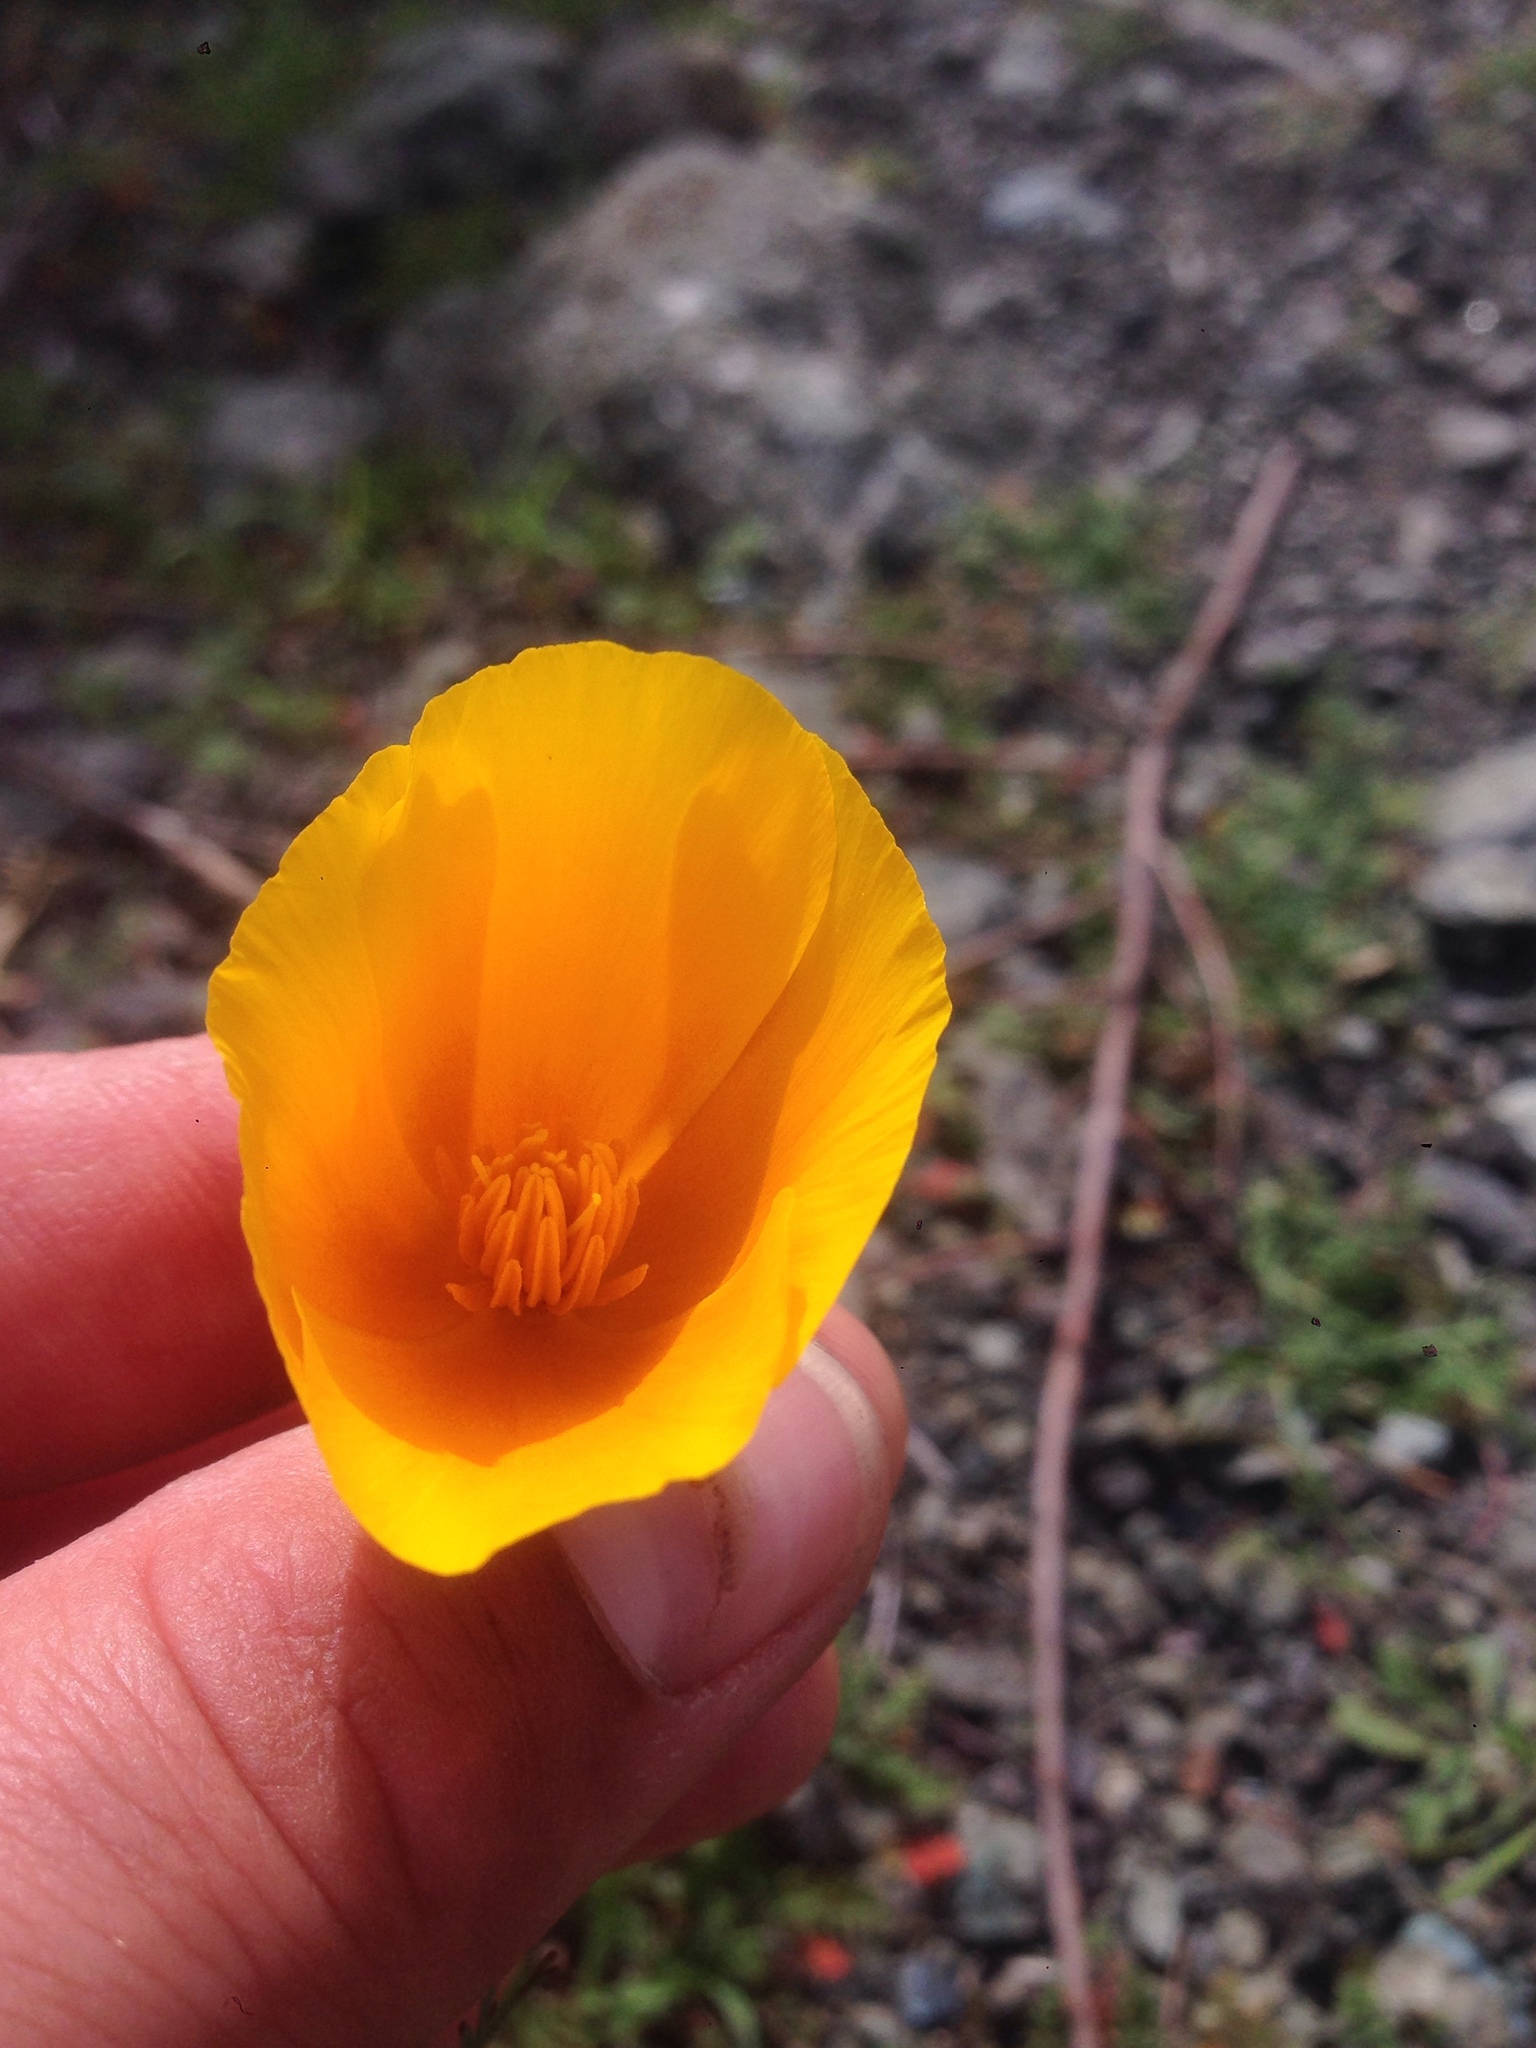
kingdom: Plantae
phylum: Tracheophyta
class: Magnoliopsida
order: Ranunculales
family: Papaveraceae
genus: Eschscholzia
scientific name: Eschscholzia californica
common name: California poppy
